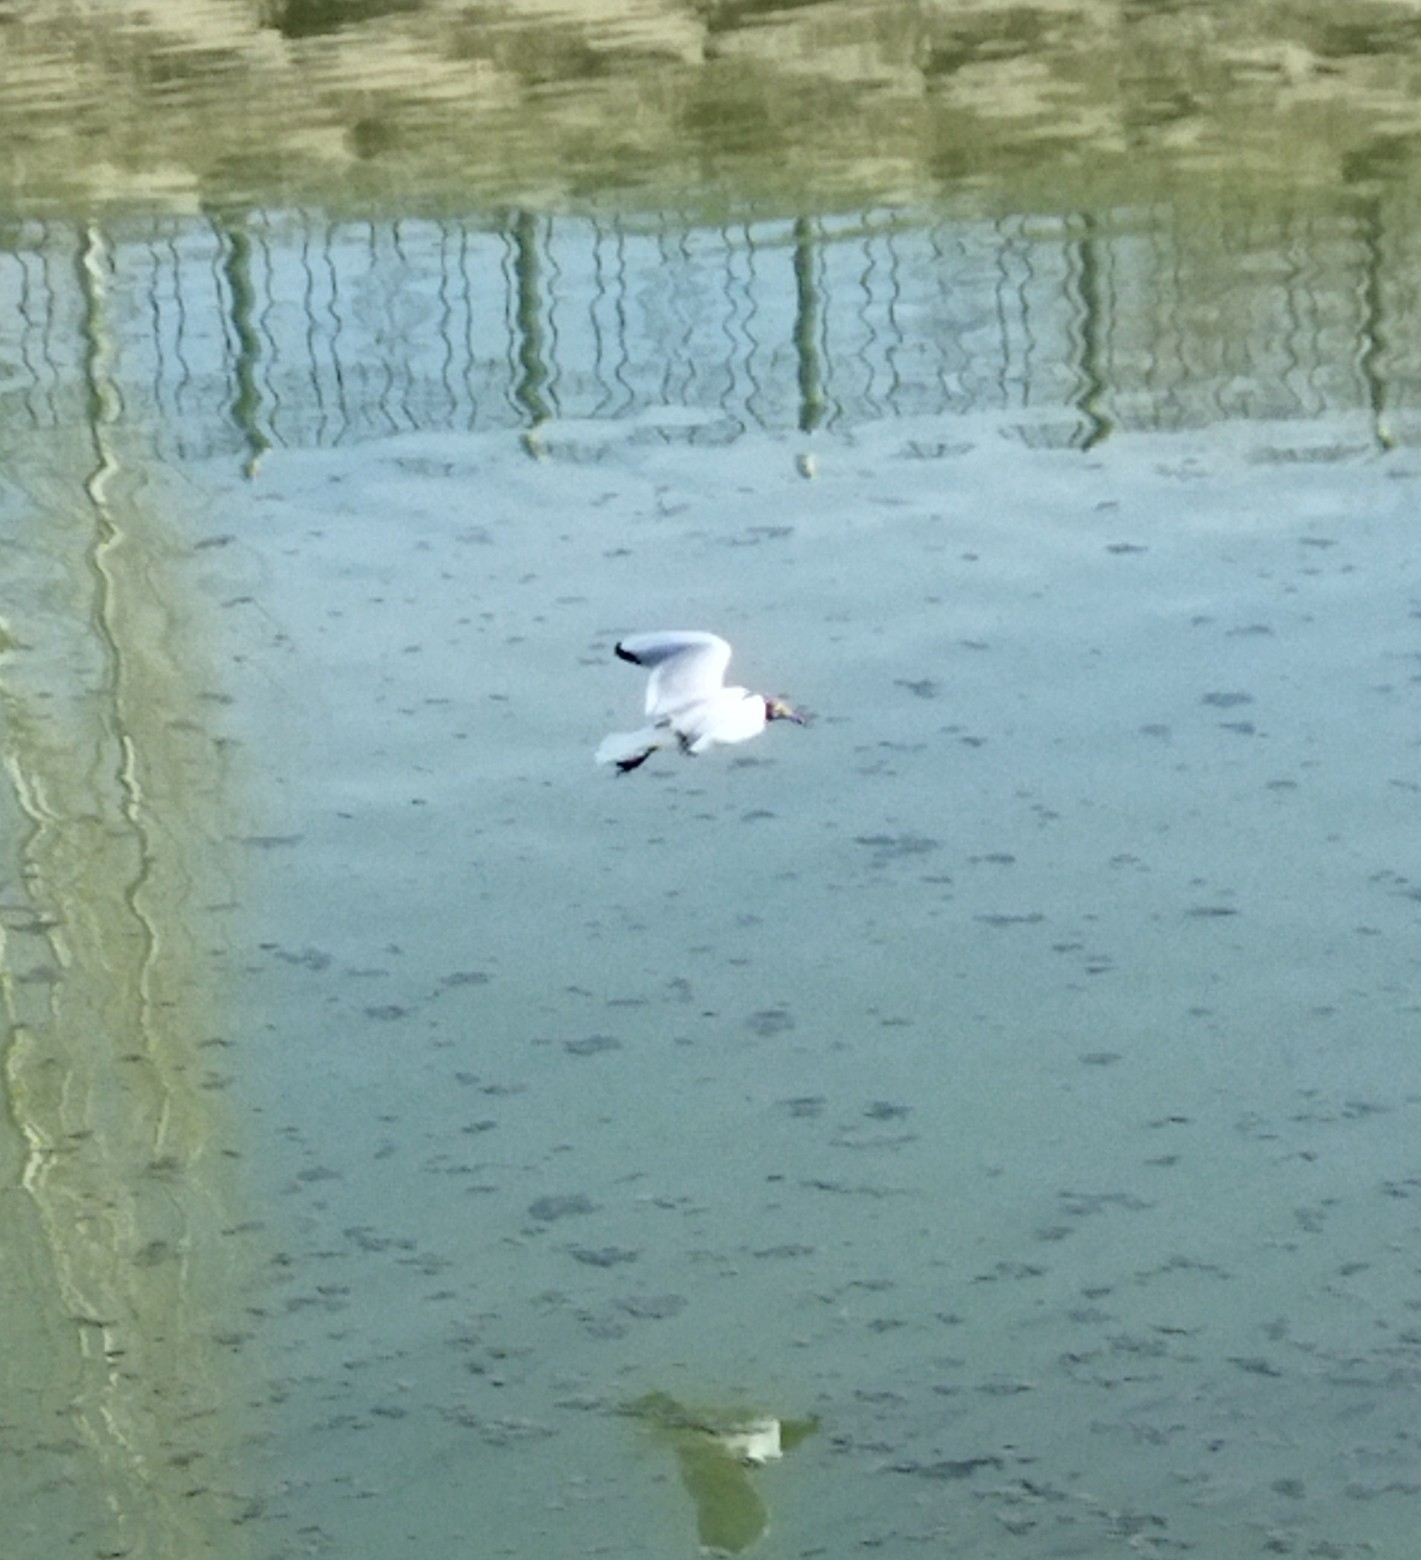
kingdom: Animalia
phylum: Chordata
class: Aves
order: Charadriiformes
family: Laridae
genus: Chroicocephalus
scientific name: Chroicocephalus ridibundus
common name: Black-headed gull
